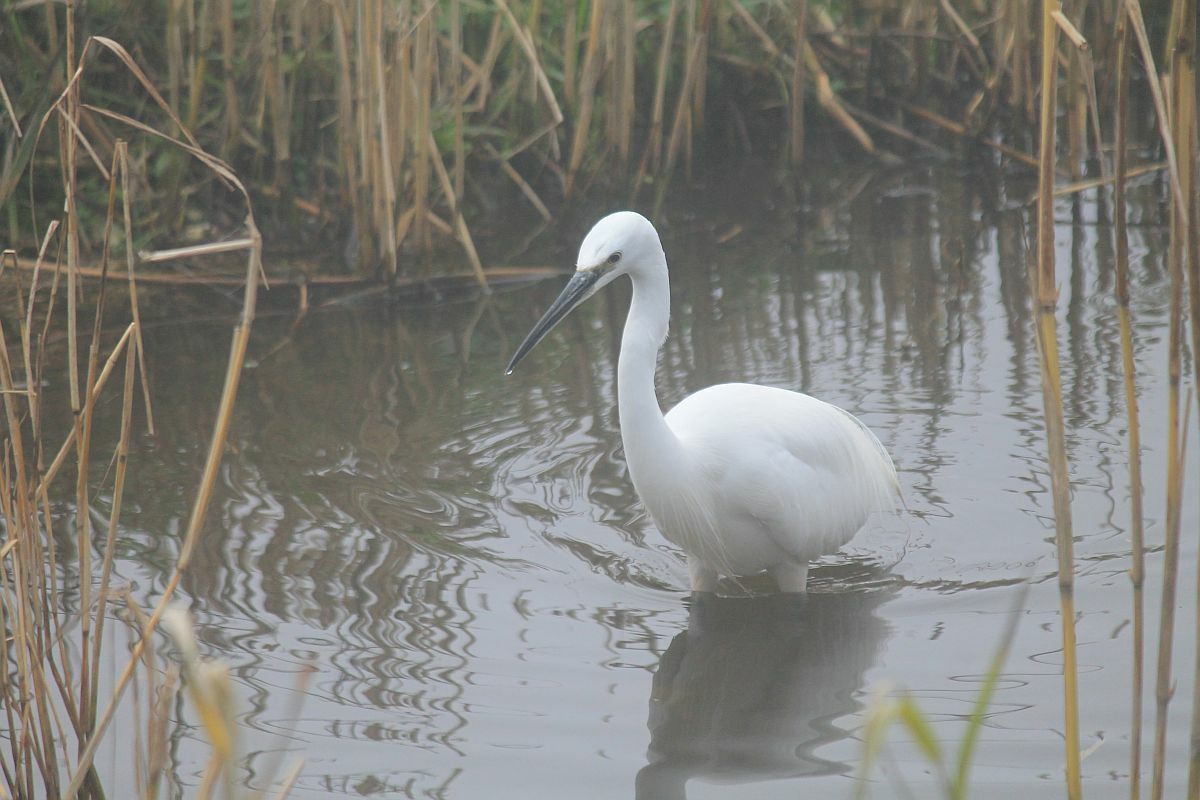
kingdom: Animalia
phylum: Chordata
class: Aves
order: Pelecaniformes
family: Ardeidae
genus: Egretta
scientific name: Egretta garzetta
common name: Little egret
